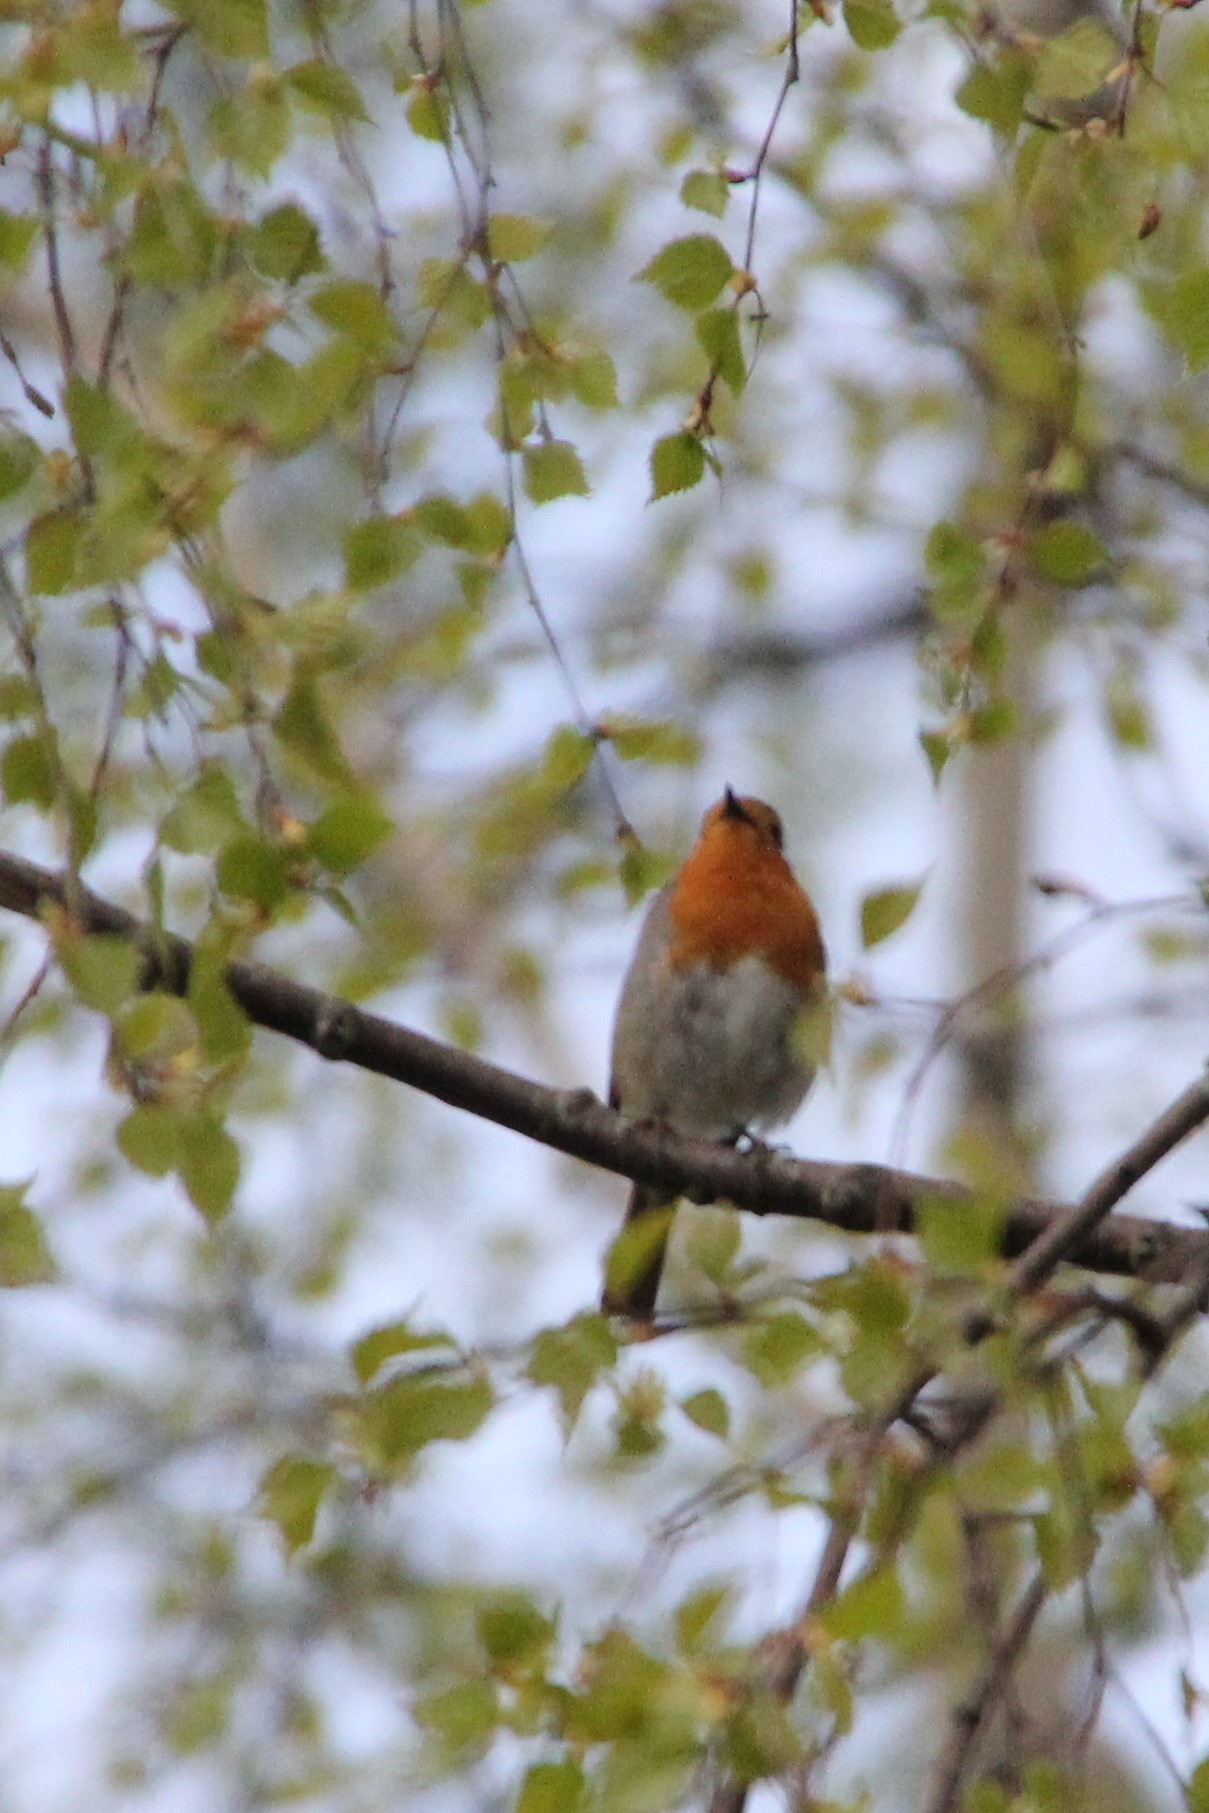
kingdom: Animalia
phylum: Chordata
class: Aves
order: Passeriformes
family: Muscicapidae
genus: Erithacus
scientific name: Erithacus rubecula
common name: European robin
